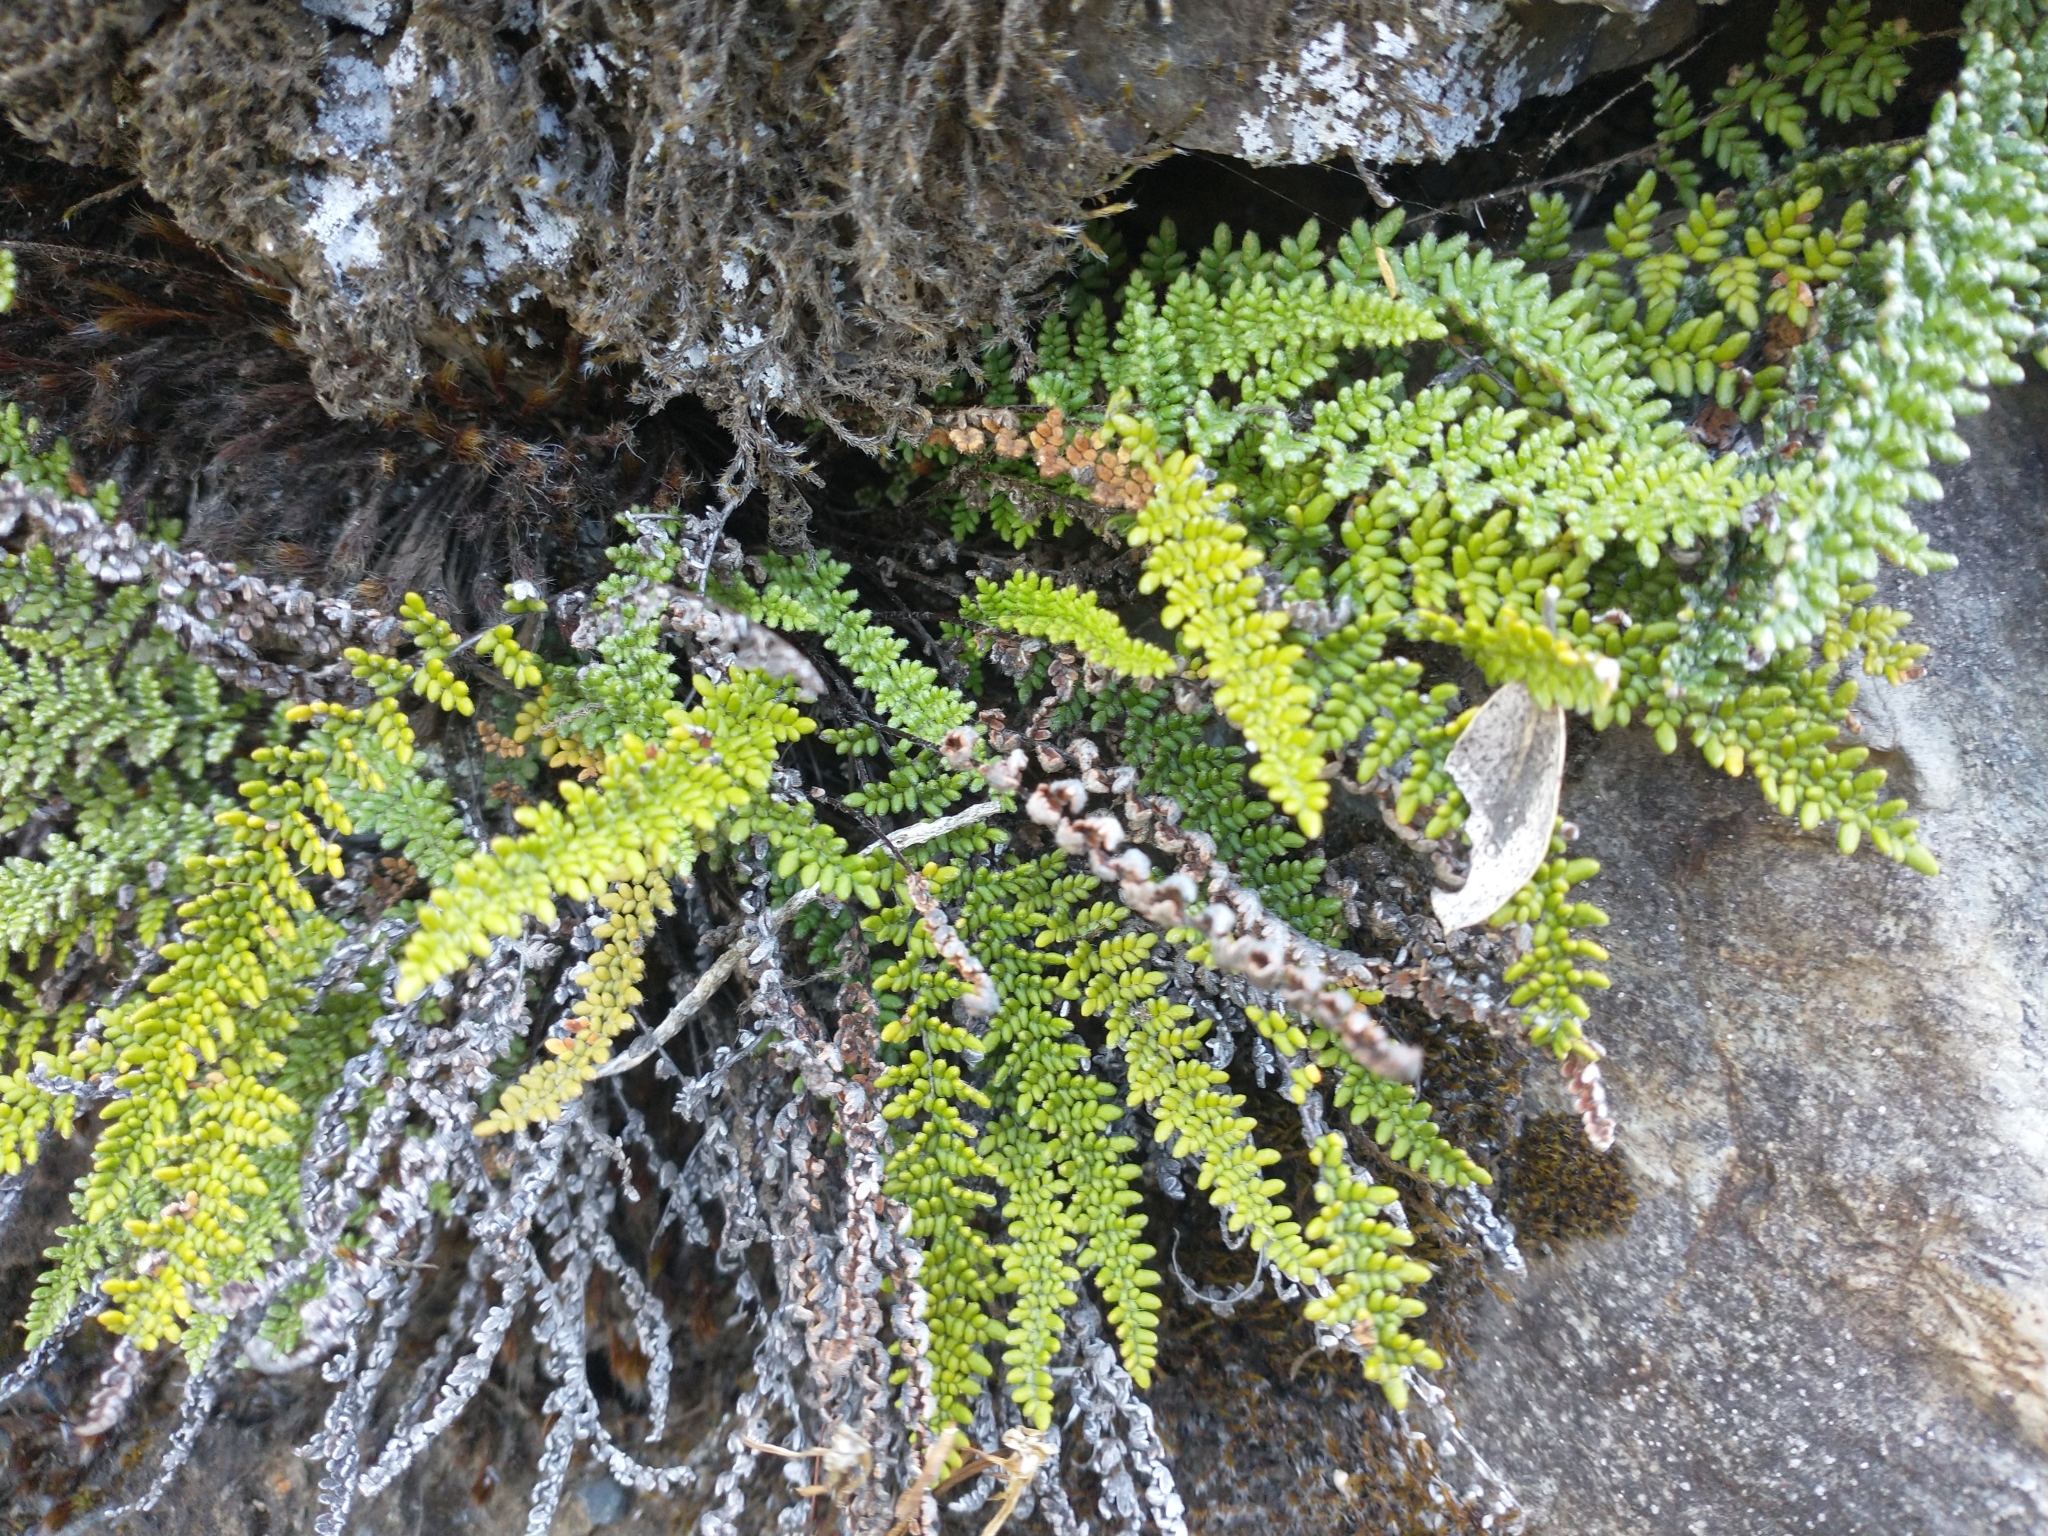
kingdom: Plantae
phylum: Tracheophyta
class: Polypodiopsida
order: Polypodiales
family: Pteridaceae
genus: Myriopteris
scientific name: Myriopteris gracillima
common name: Lace fern
